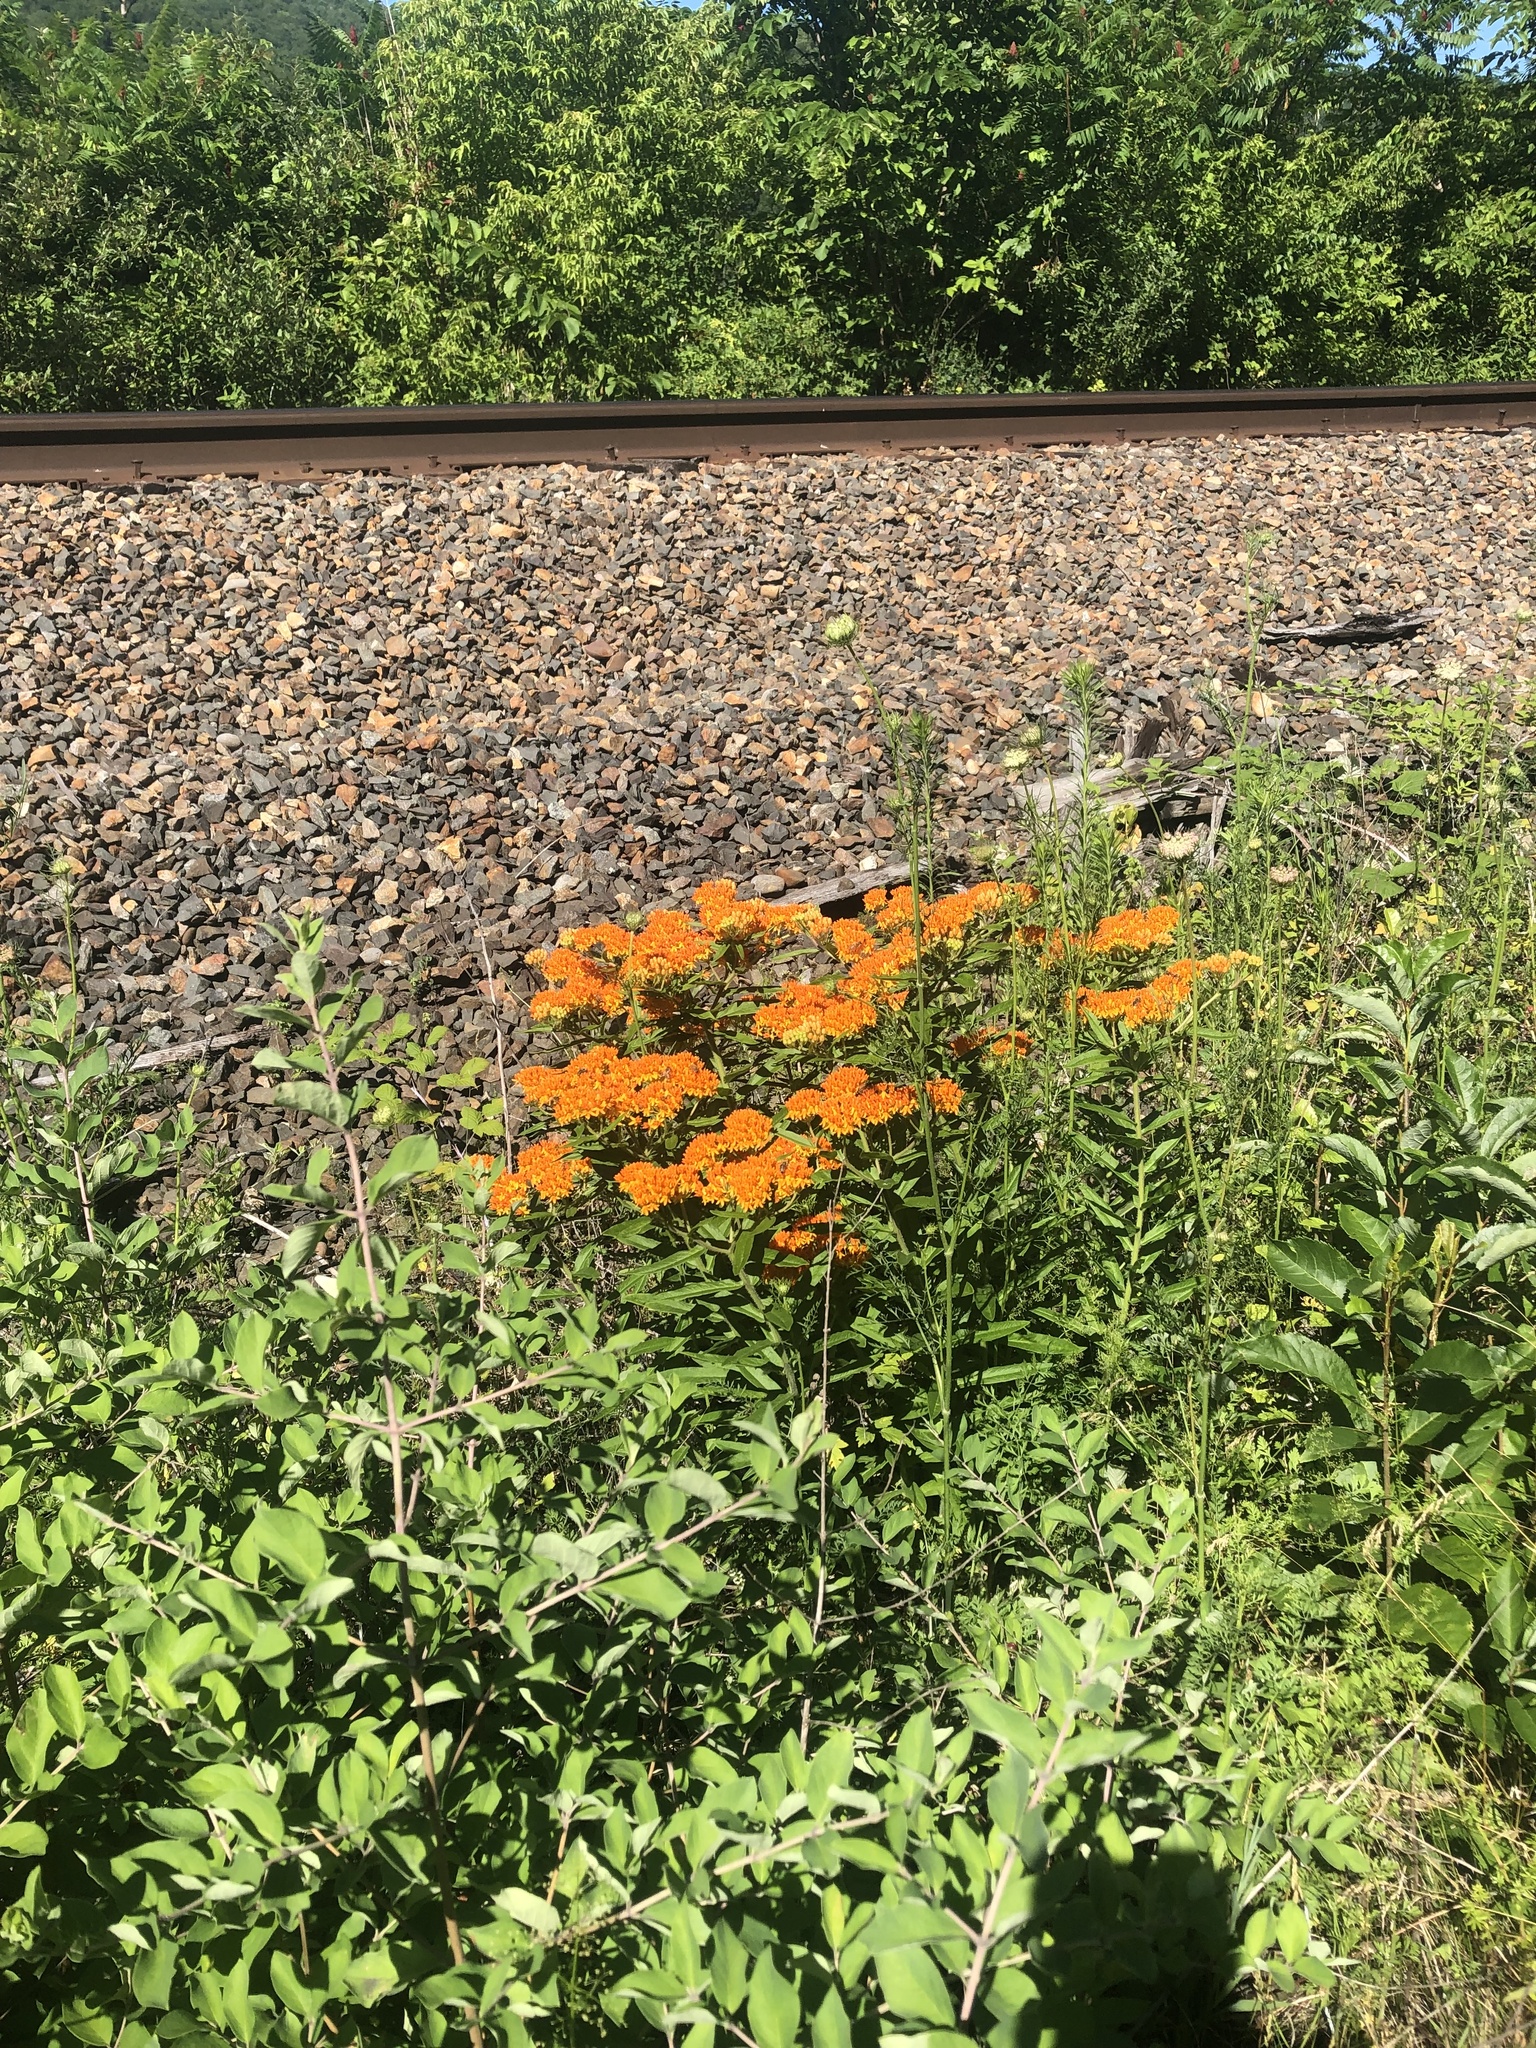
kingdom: Plantae
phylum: Tracheophyta
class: Magnoliopsida
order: Gentianales
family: Apocynaceae
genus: Asclepias
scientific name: Asclepias tuberosa
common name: Butterfly milkweed
